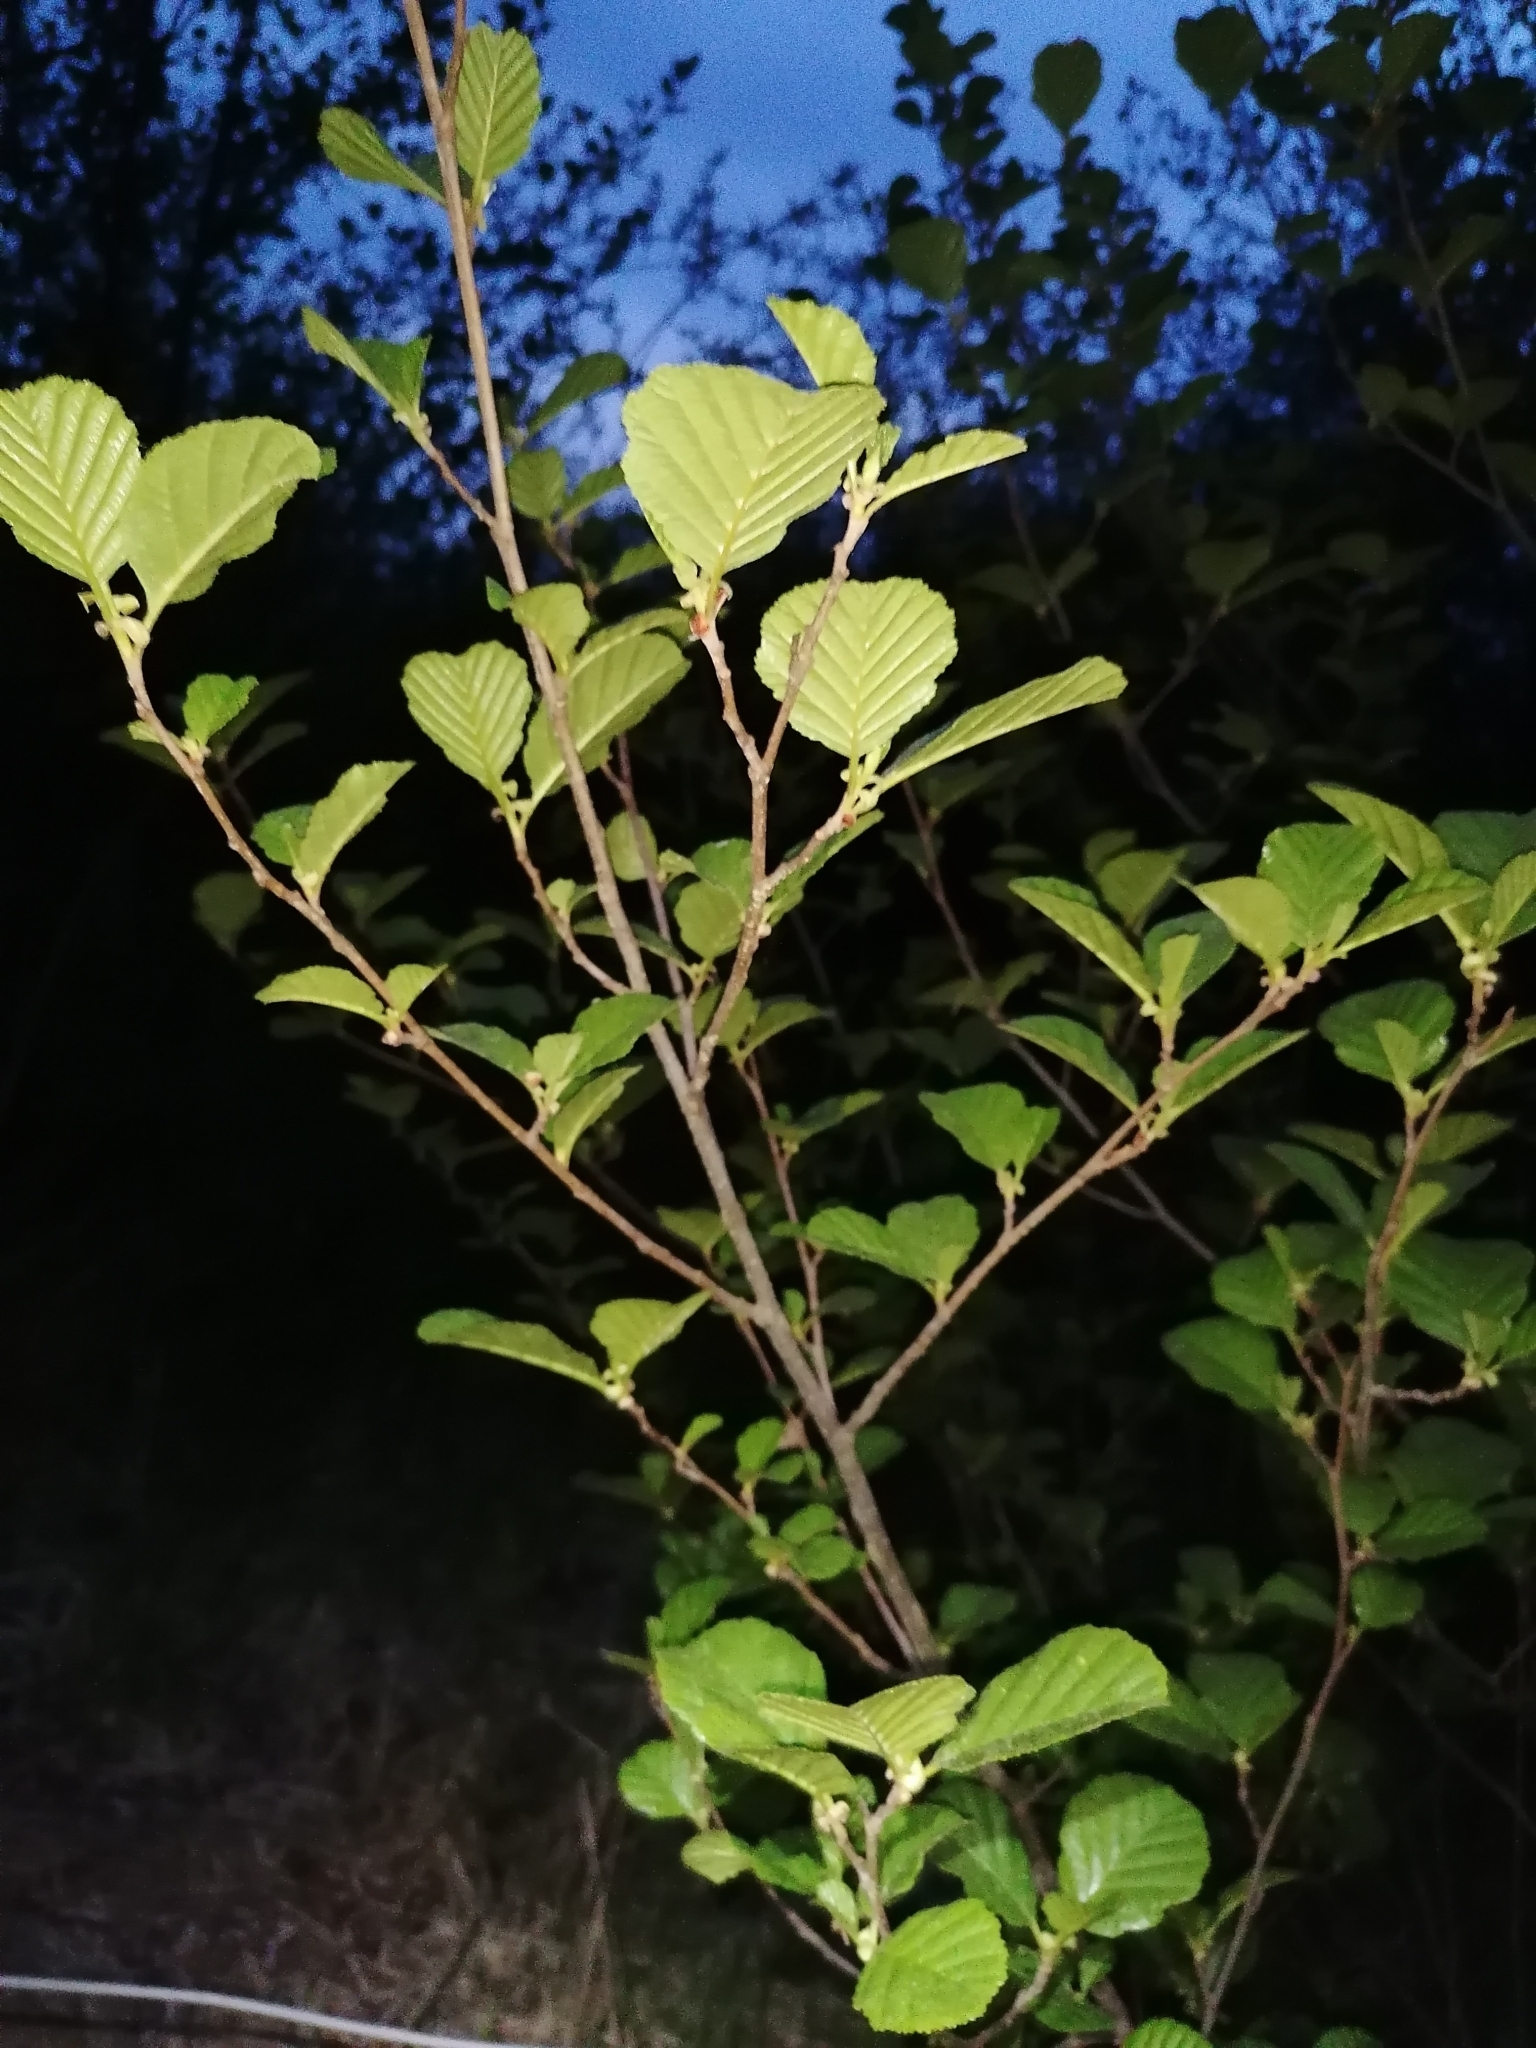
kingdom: Plantae
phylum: Tracheophyta
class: Magnoliopsida
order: Fagales
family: Betulaceae
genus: Alnus
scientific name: Alnus glutinosa
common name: Black alder
